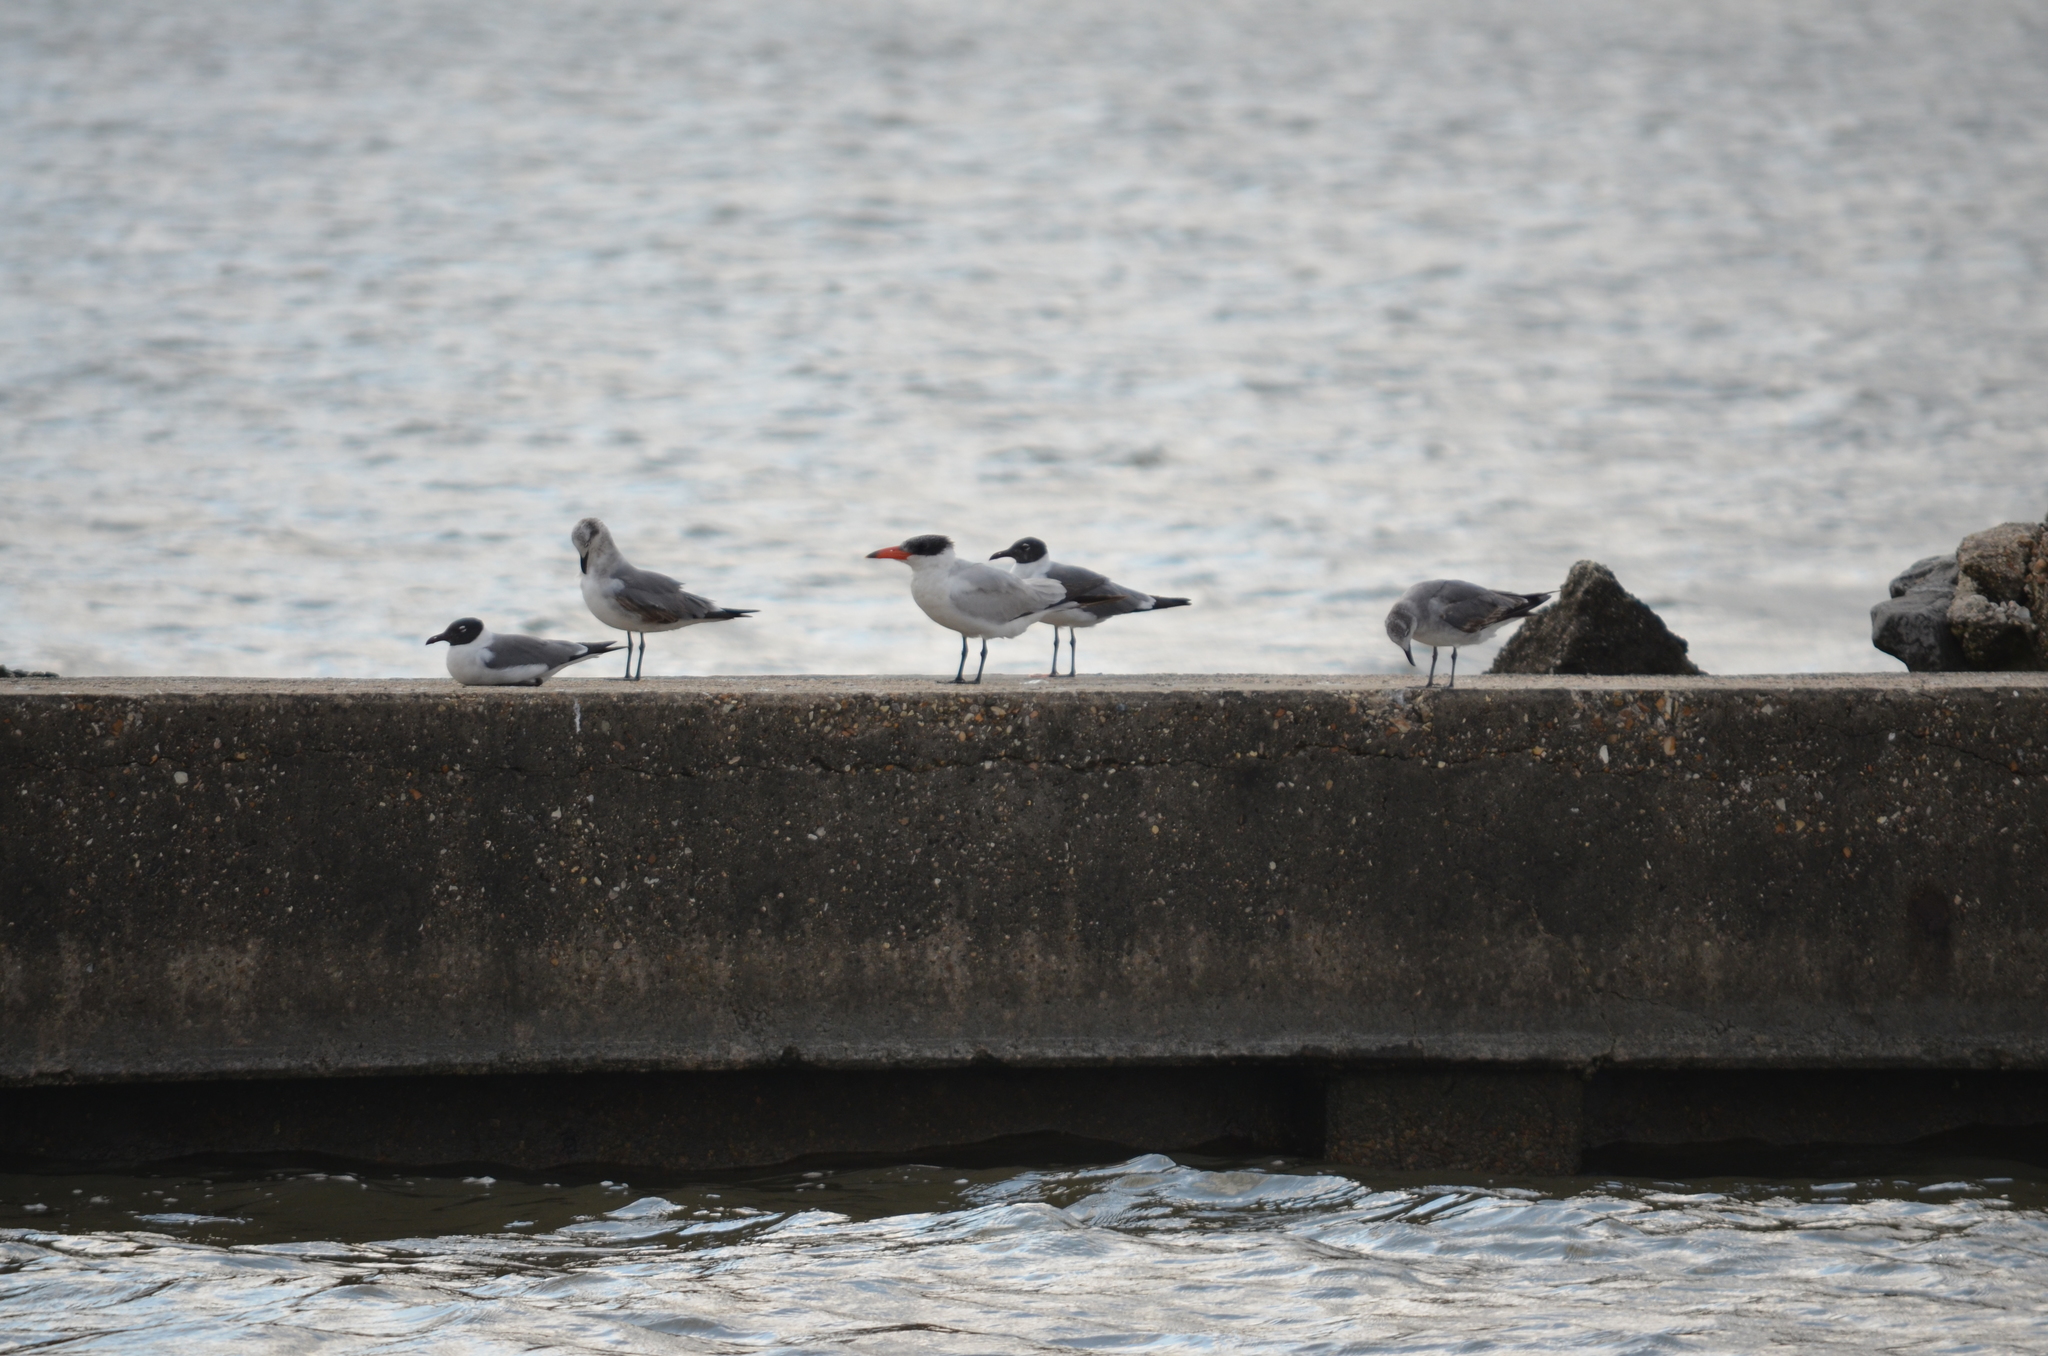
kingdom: Animalia
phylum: Chordata
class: Aves
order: Charadriiformes
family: Laridae
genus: Hydroprogne
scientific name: Hydroprogne caspia
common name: Caspian tern
